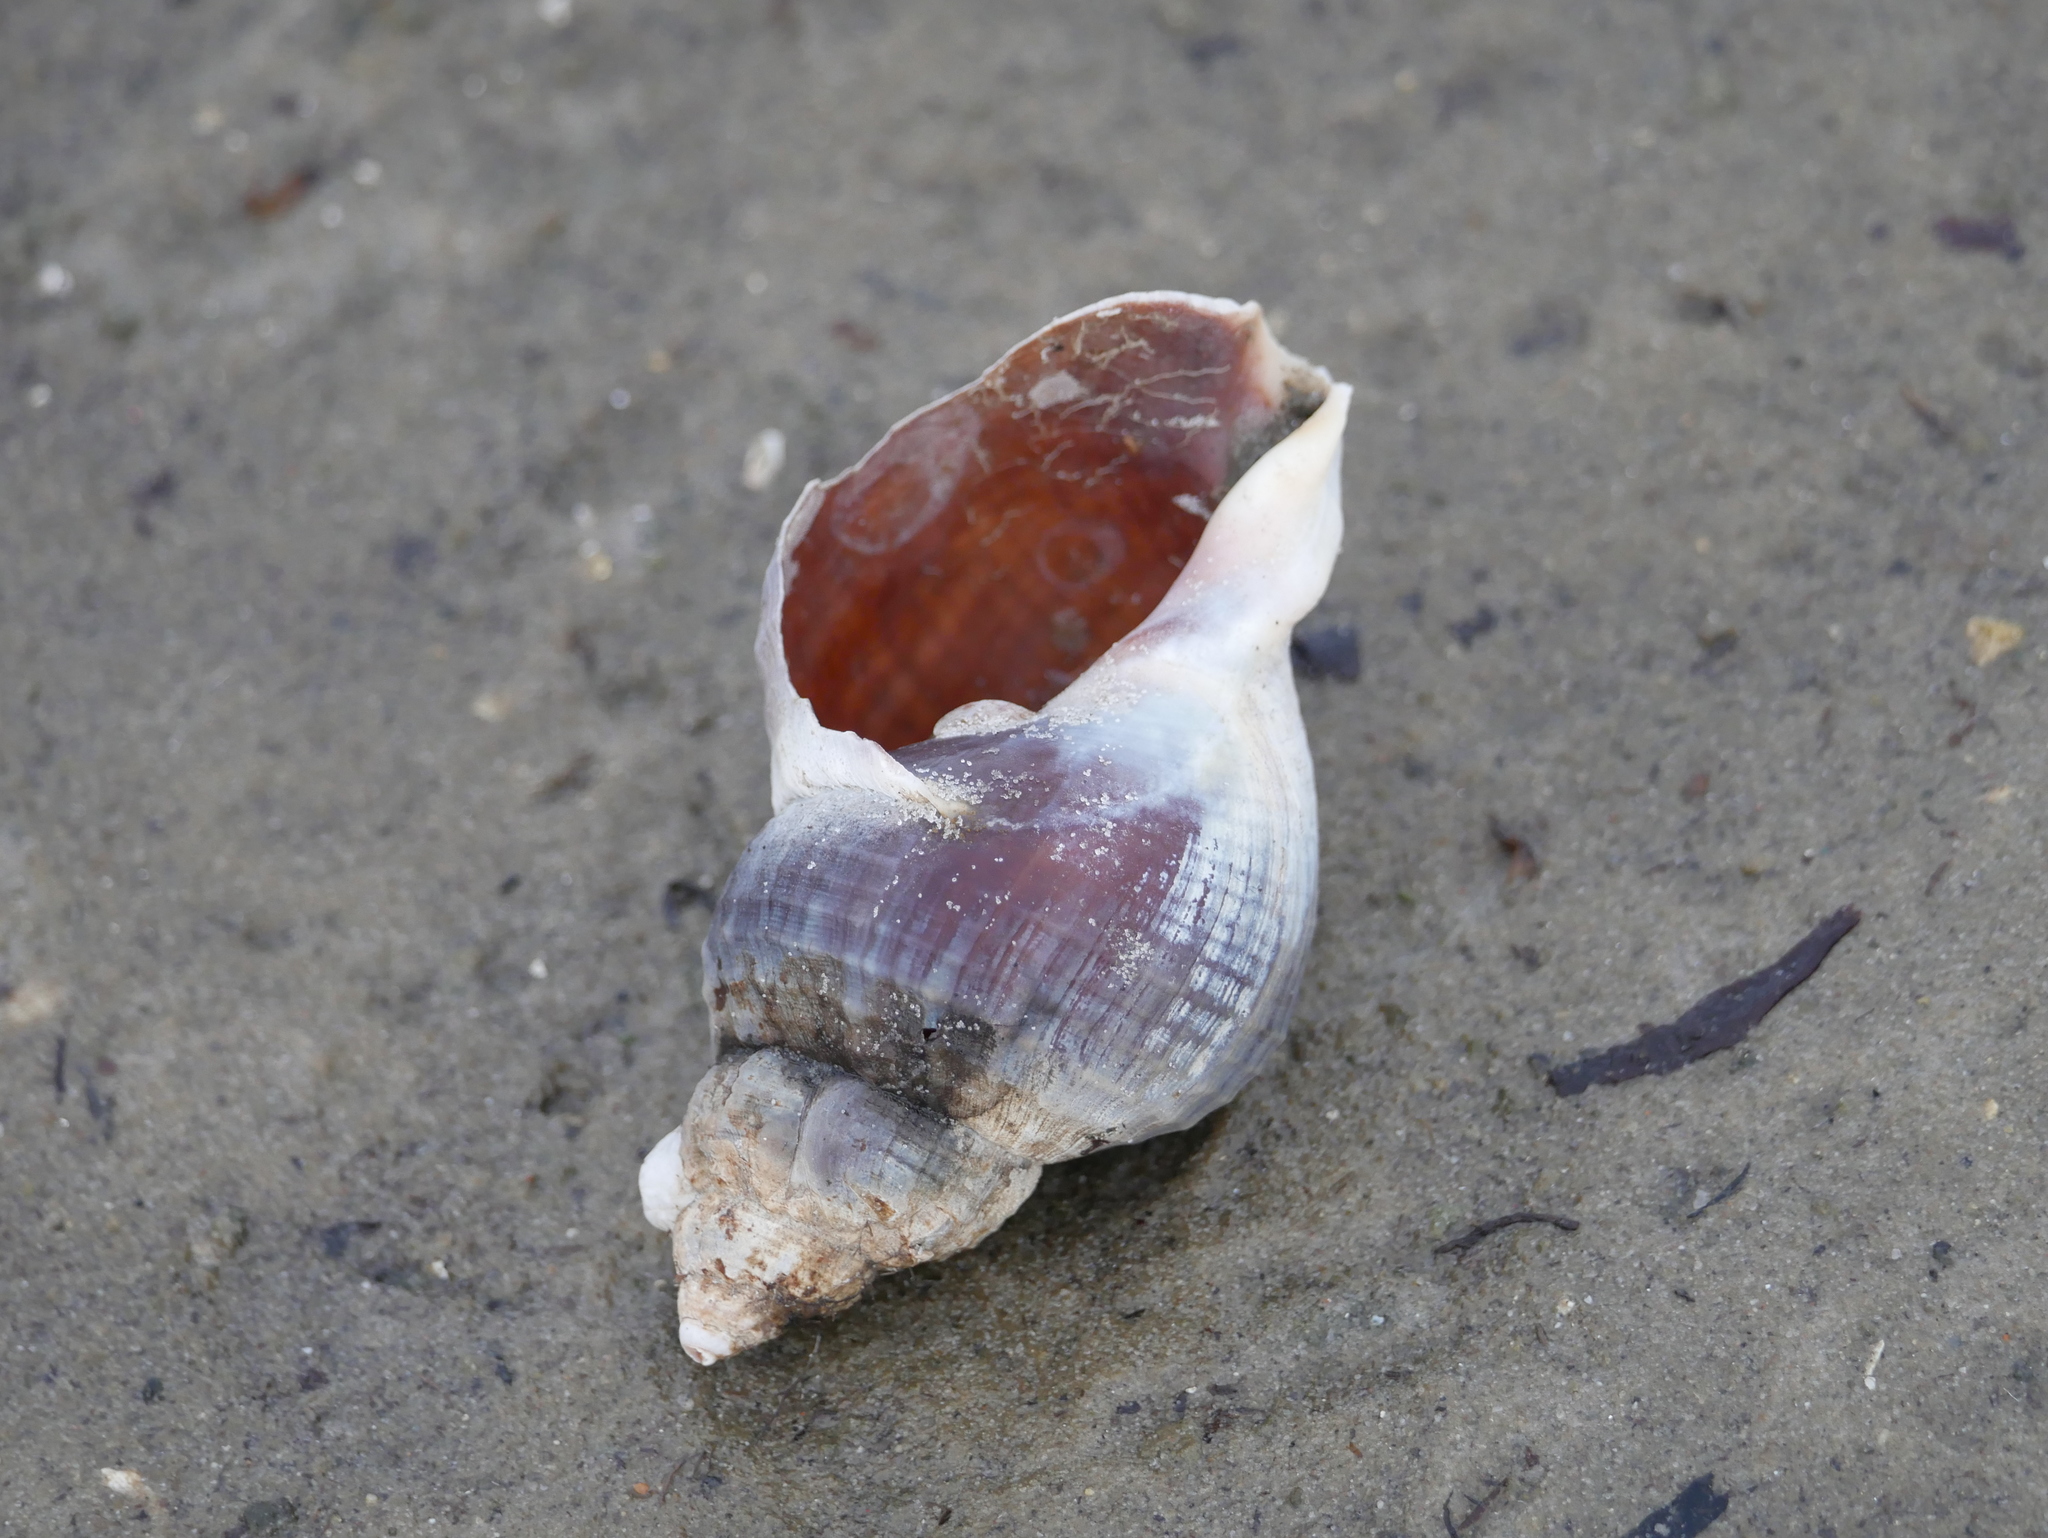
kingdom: Animalia
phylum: Mollusca
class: Gastropoda
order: Neogastropoda
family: Buccinidae
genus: Buccinum
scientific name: Buccinum undatum
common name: Common whelk
